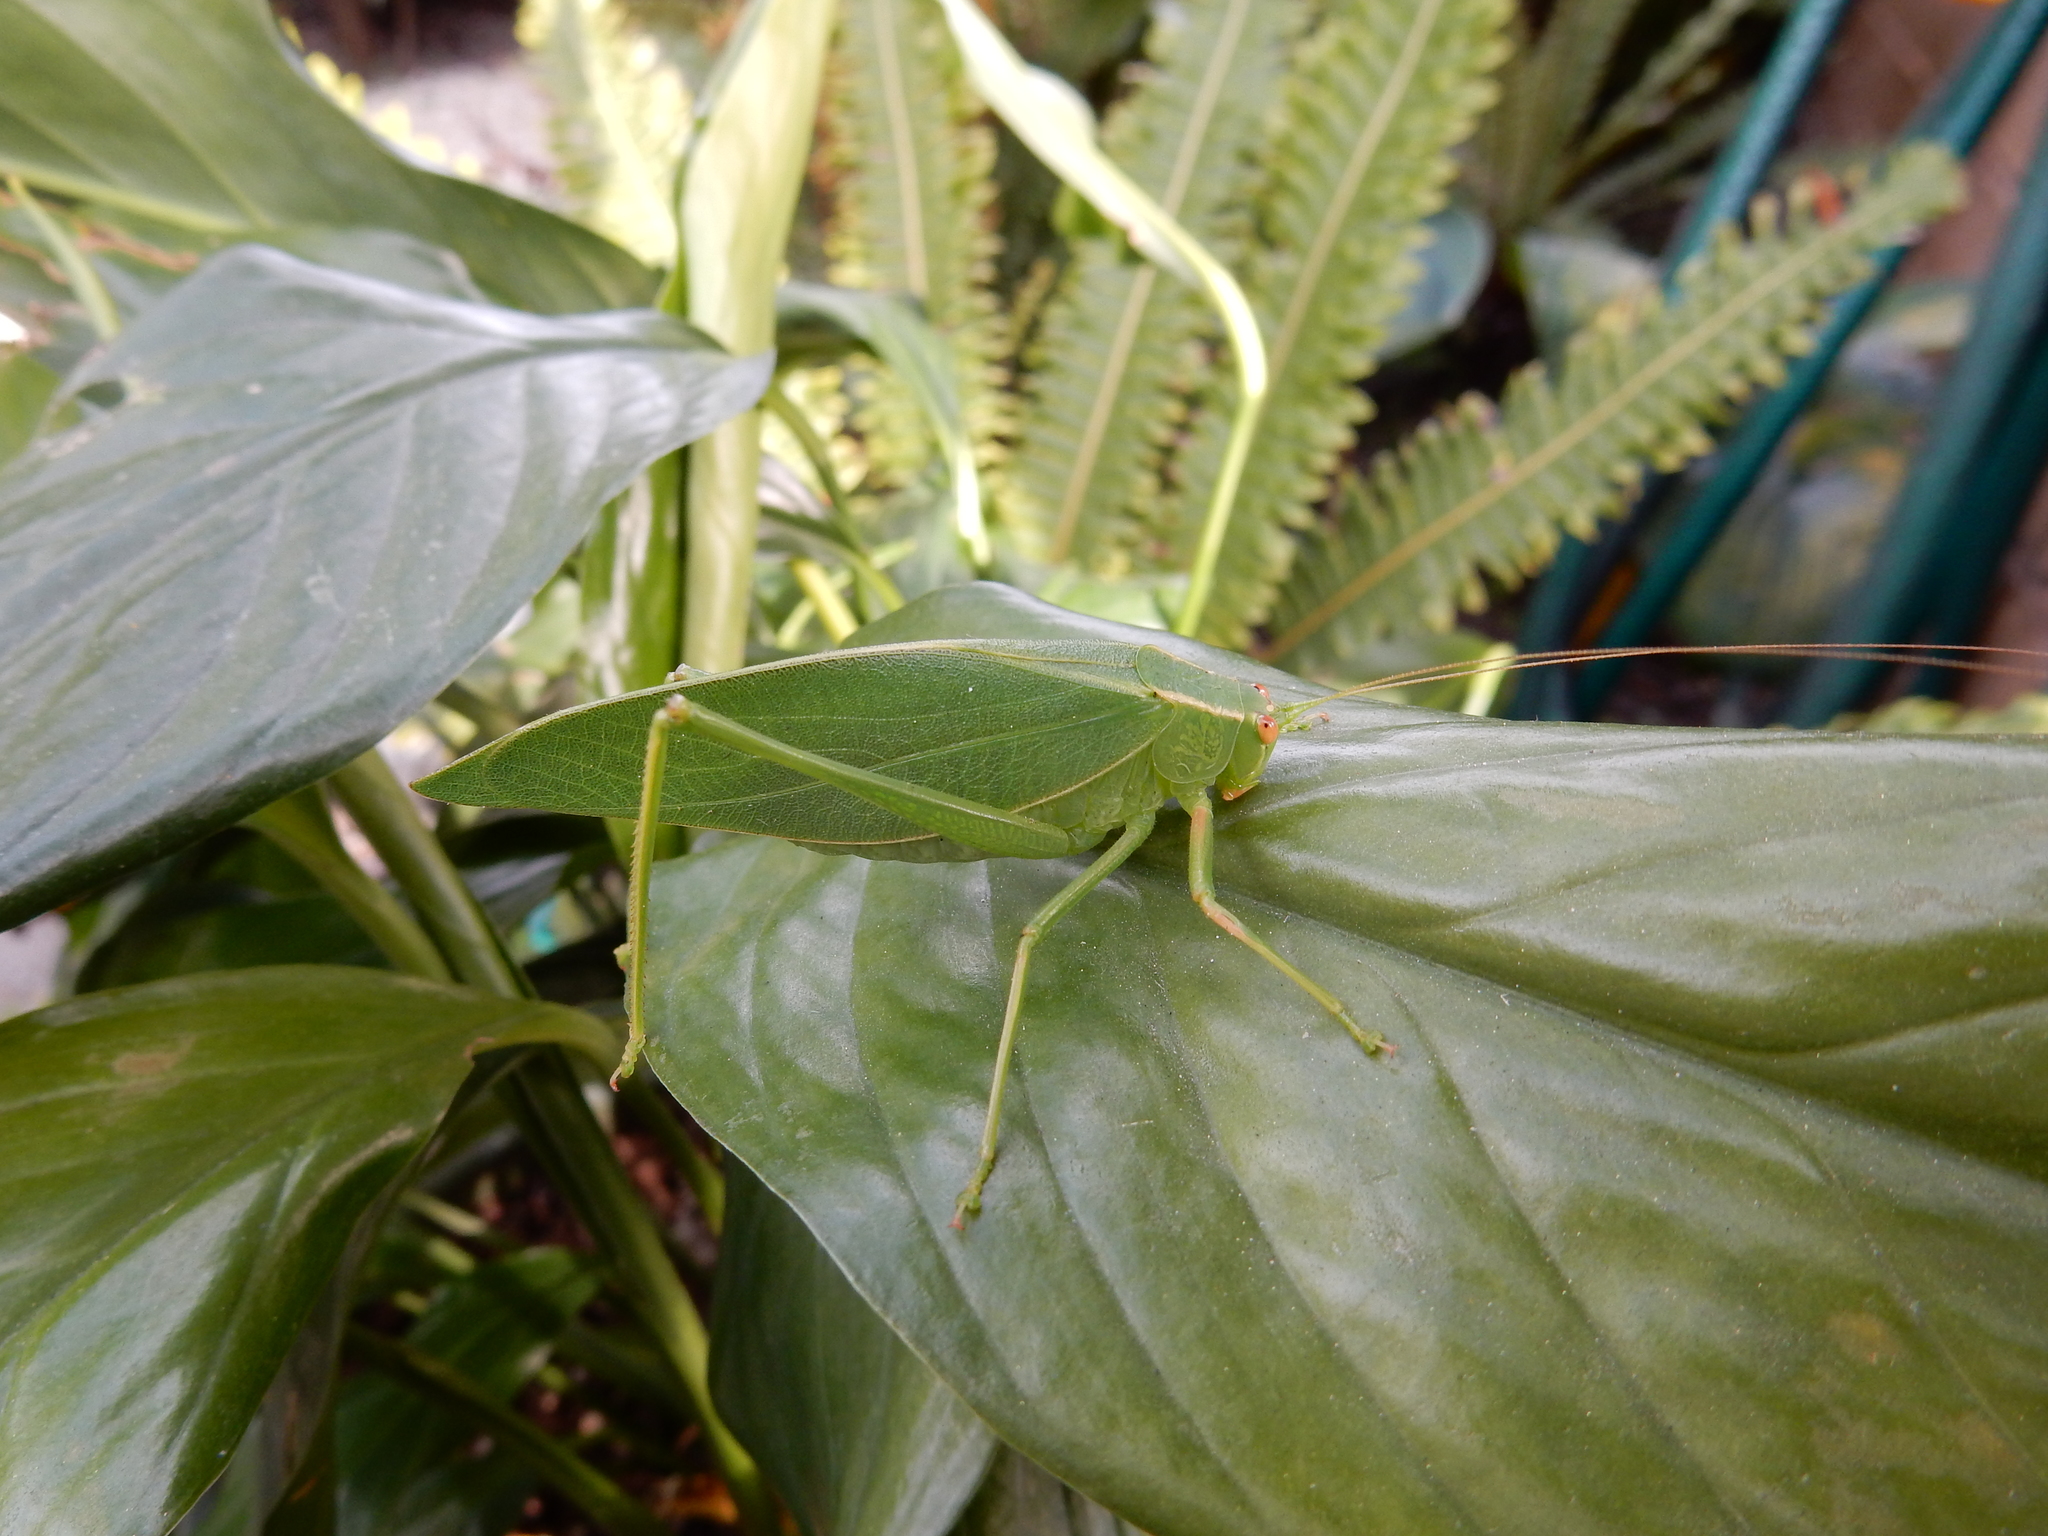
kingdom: Animalia
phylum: Arthropoda
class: Insecta
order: Orthoptera
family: Tettigoniidae
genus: Caedicia
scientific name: Caedicia simplex
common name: Common garden katydid
